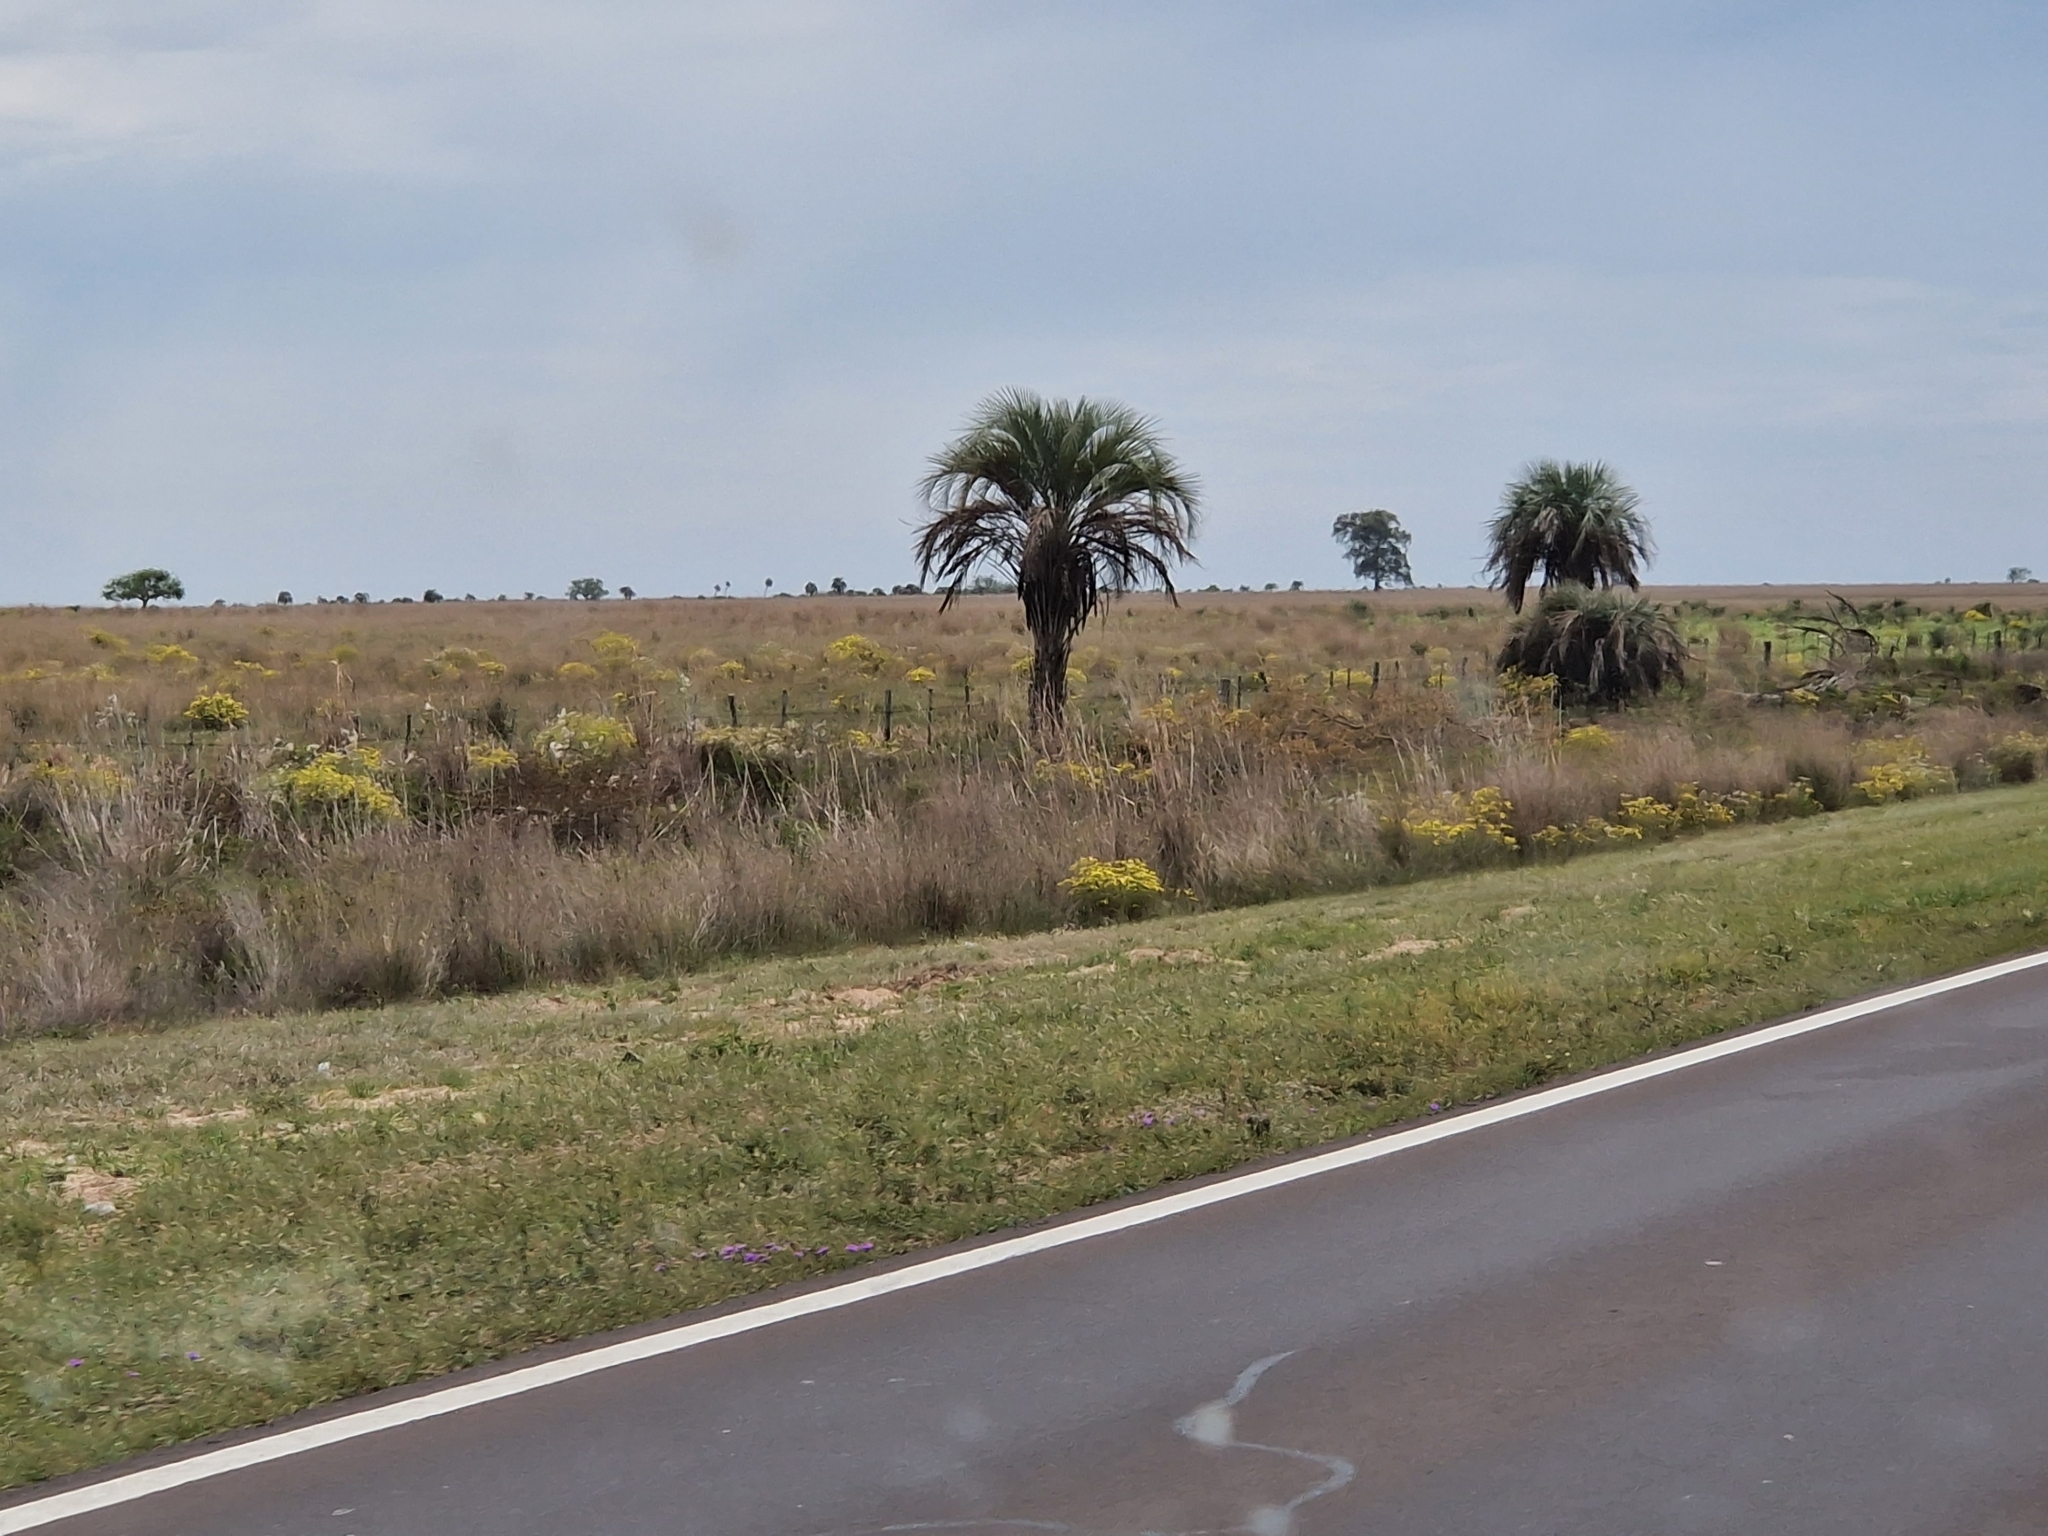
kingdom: Plantae
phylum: Tracheophyta
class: Liliopsida
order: Arecales
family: Arecaceae
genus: Butia
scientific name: Butia yatay
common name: Yatay palm
